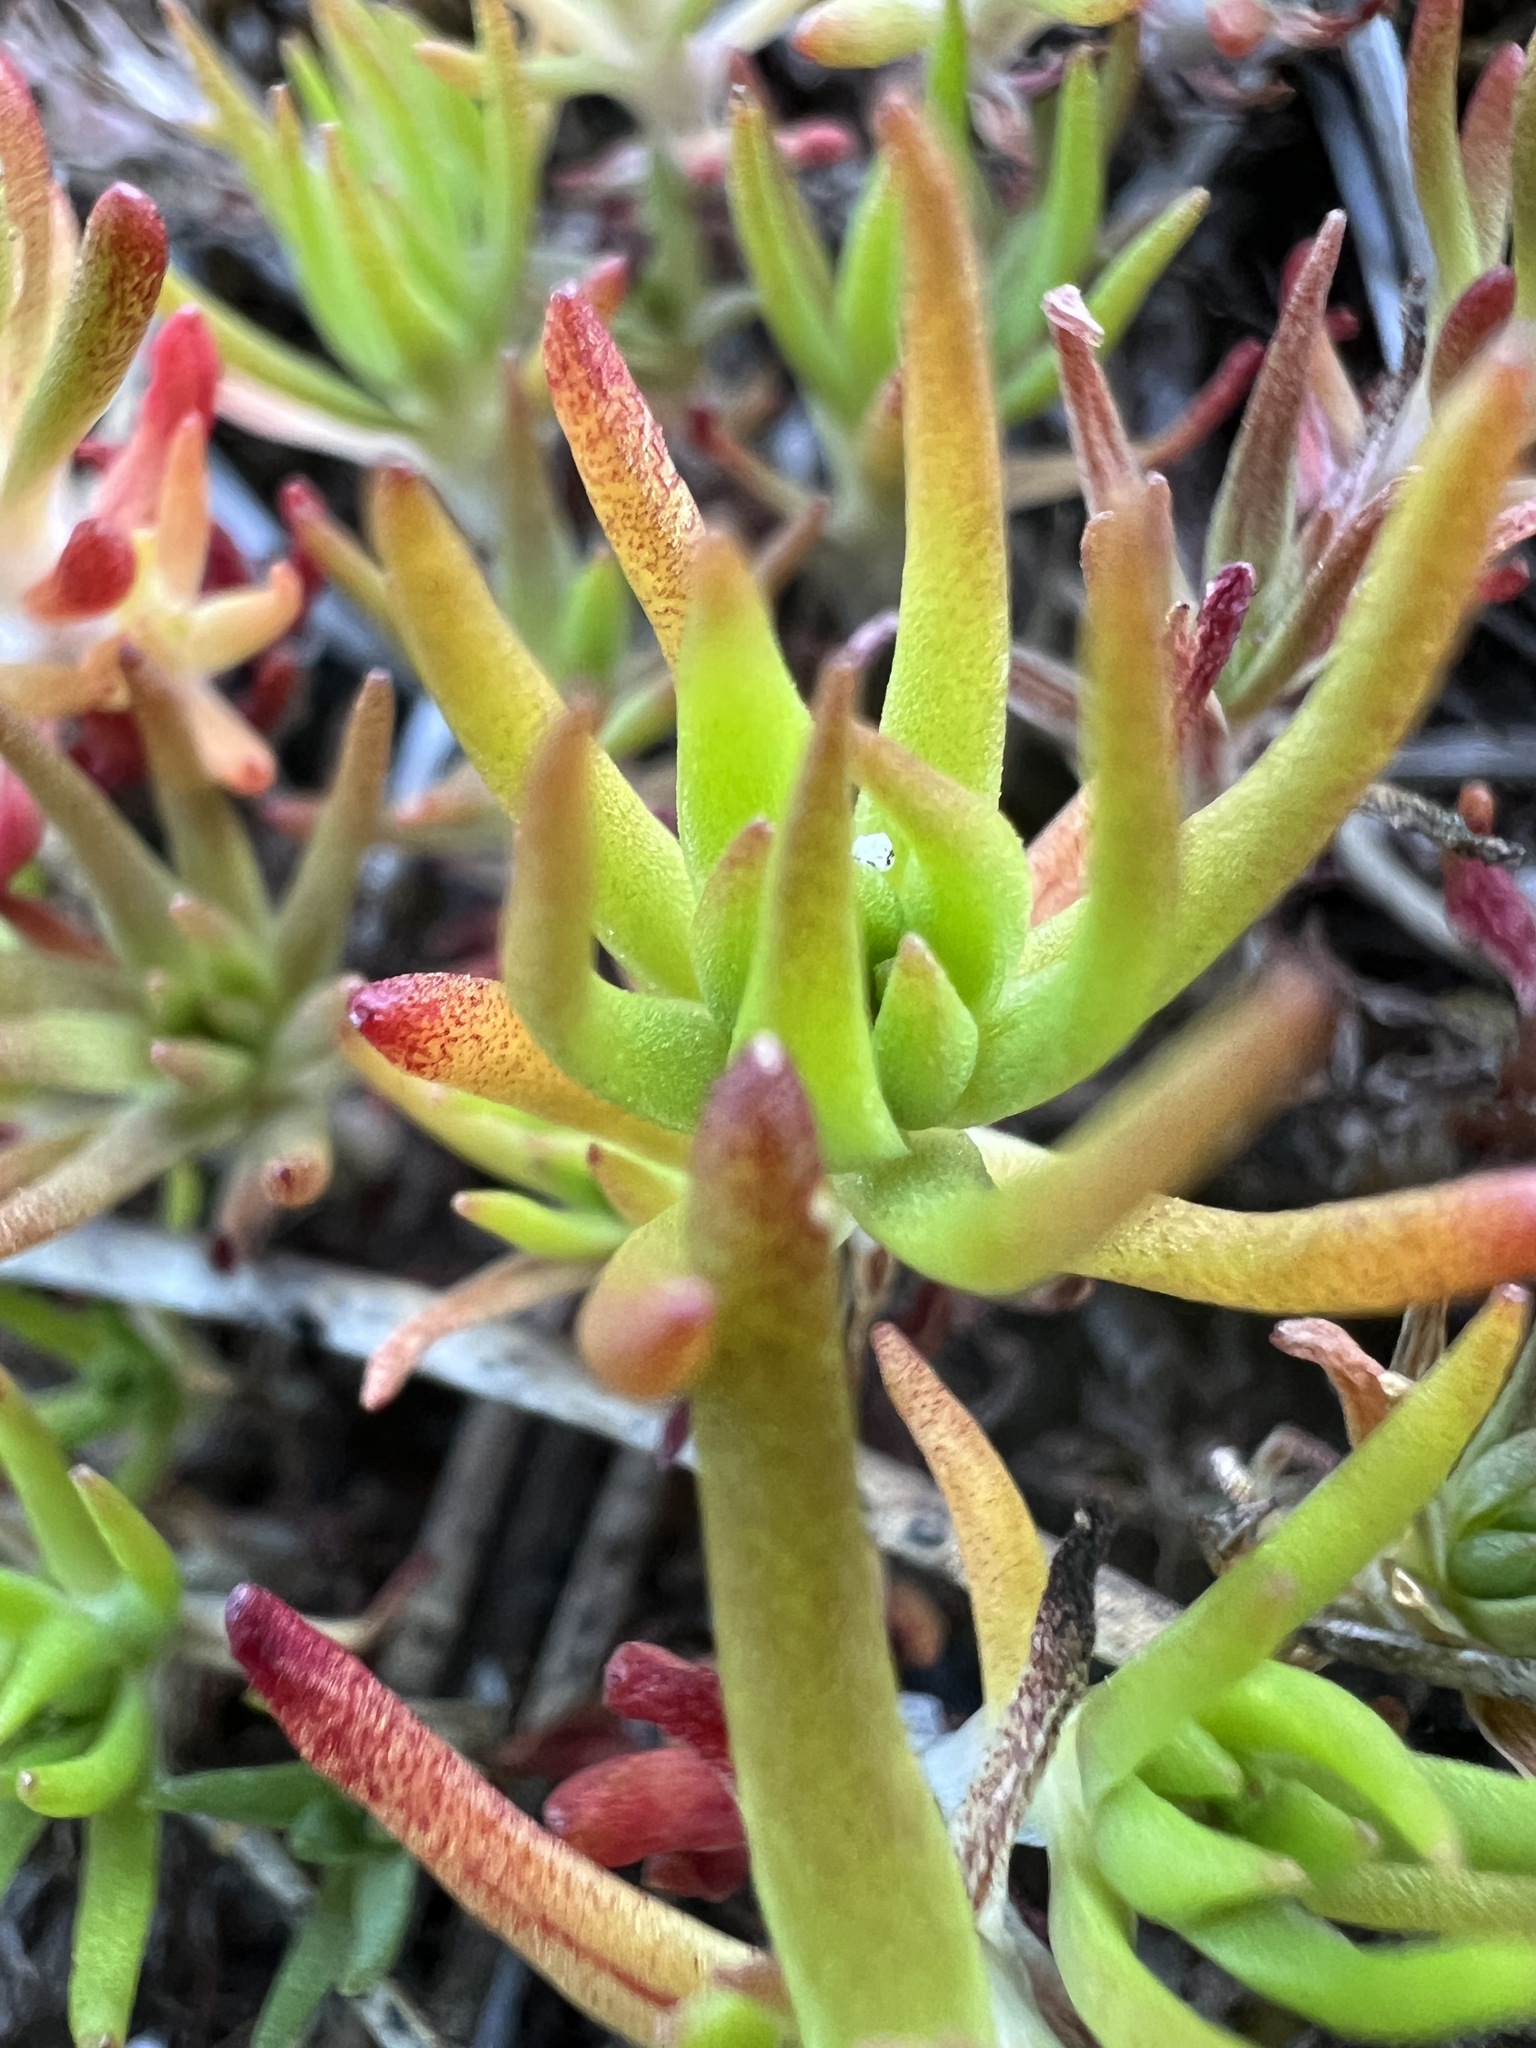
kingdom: Plantae
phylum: Tracheophyta
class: Magnoliopsida
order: Saxifragales
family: Crassulaceae
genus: Sedum
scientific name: Sedum stenopetalum
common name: Narrow-petaled stonecrop
